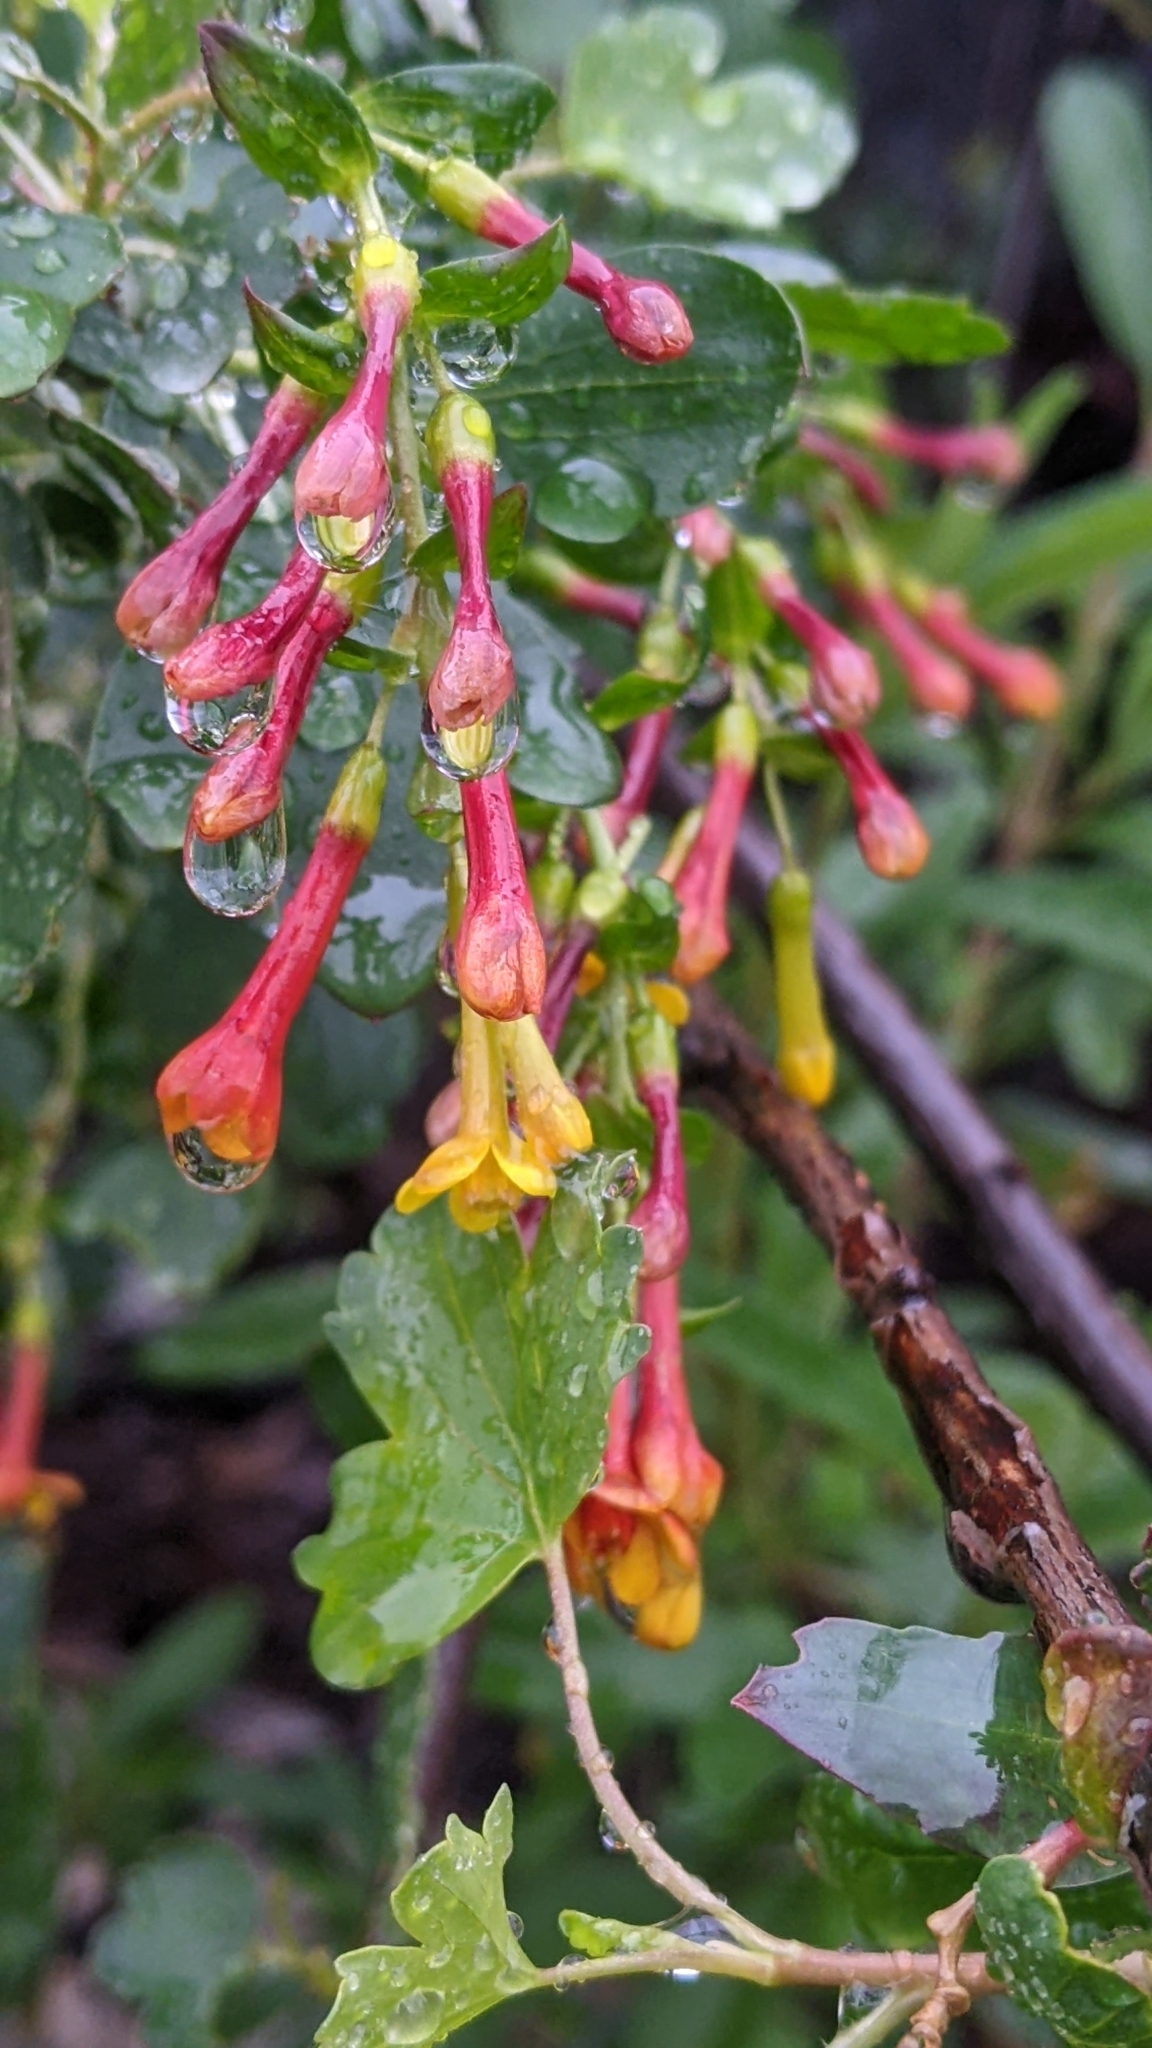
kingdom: Plantae
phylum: Tracheophyta
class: Magnoliopsida
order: Saxifragales
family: Grossulariaceae
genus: Ribes
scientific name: Ribes aureum
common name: Golden currant
